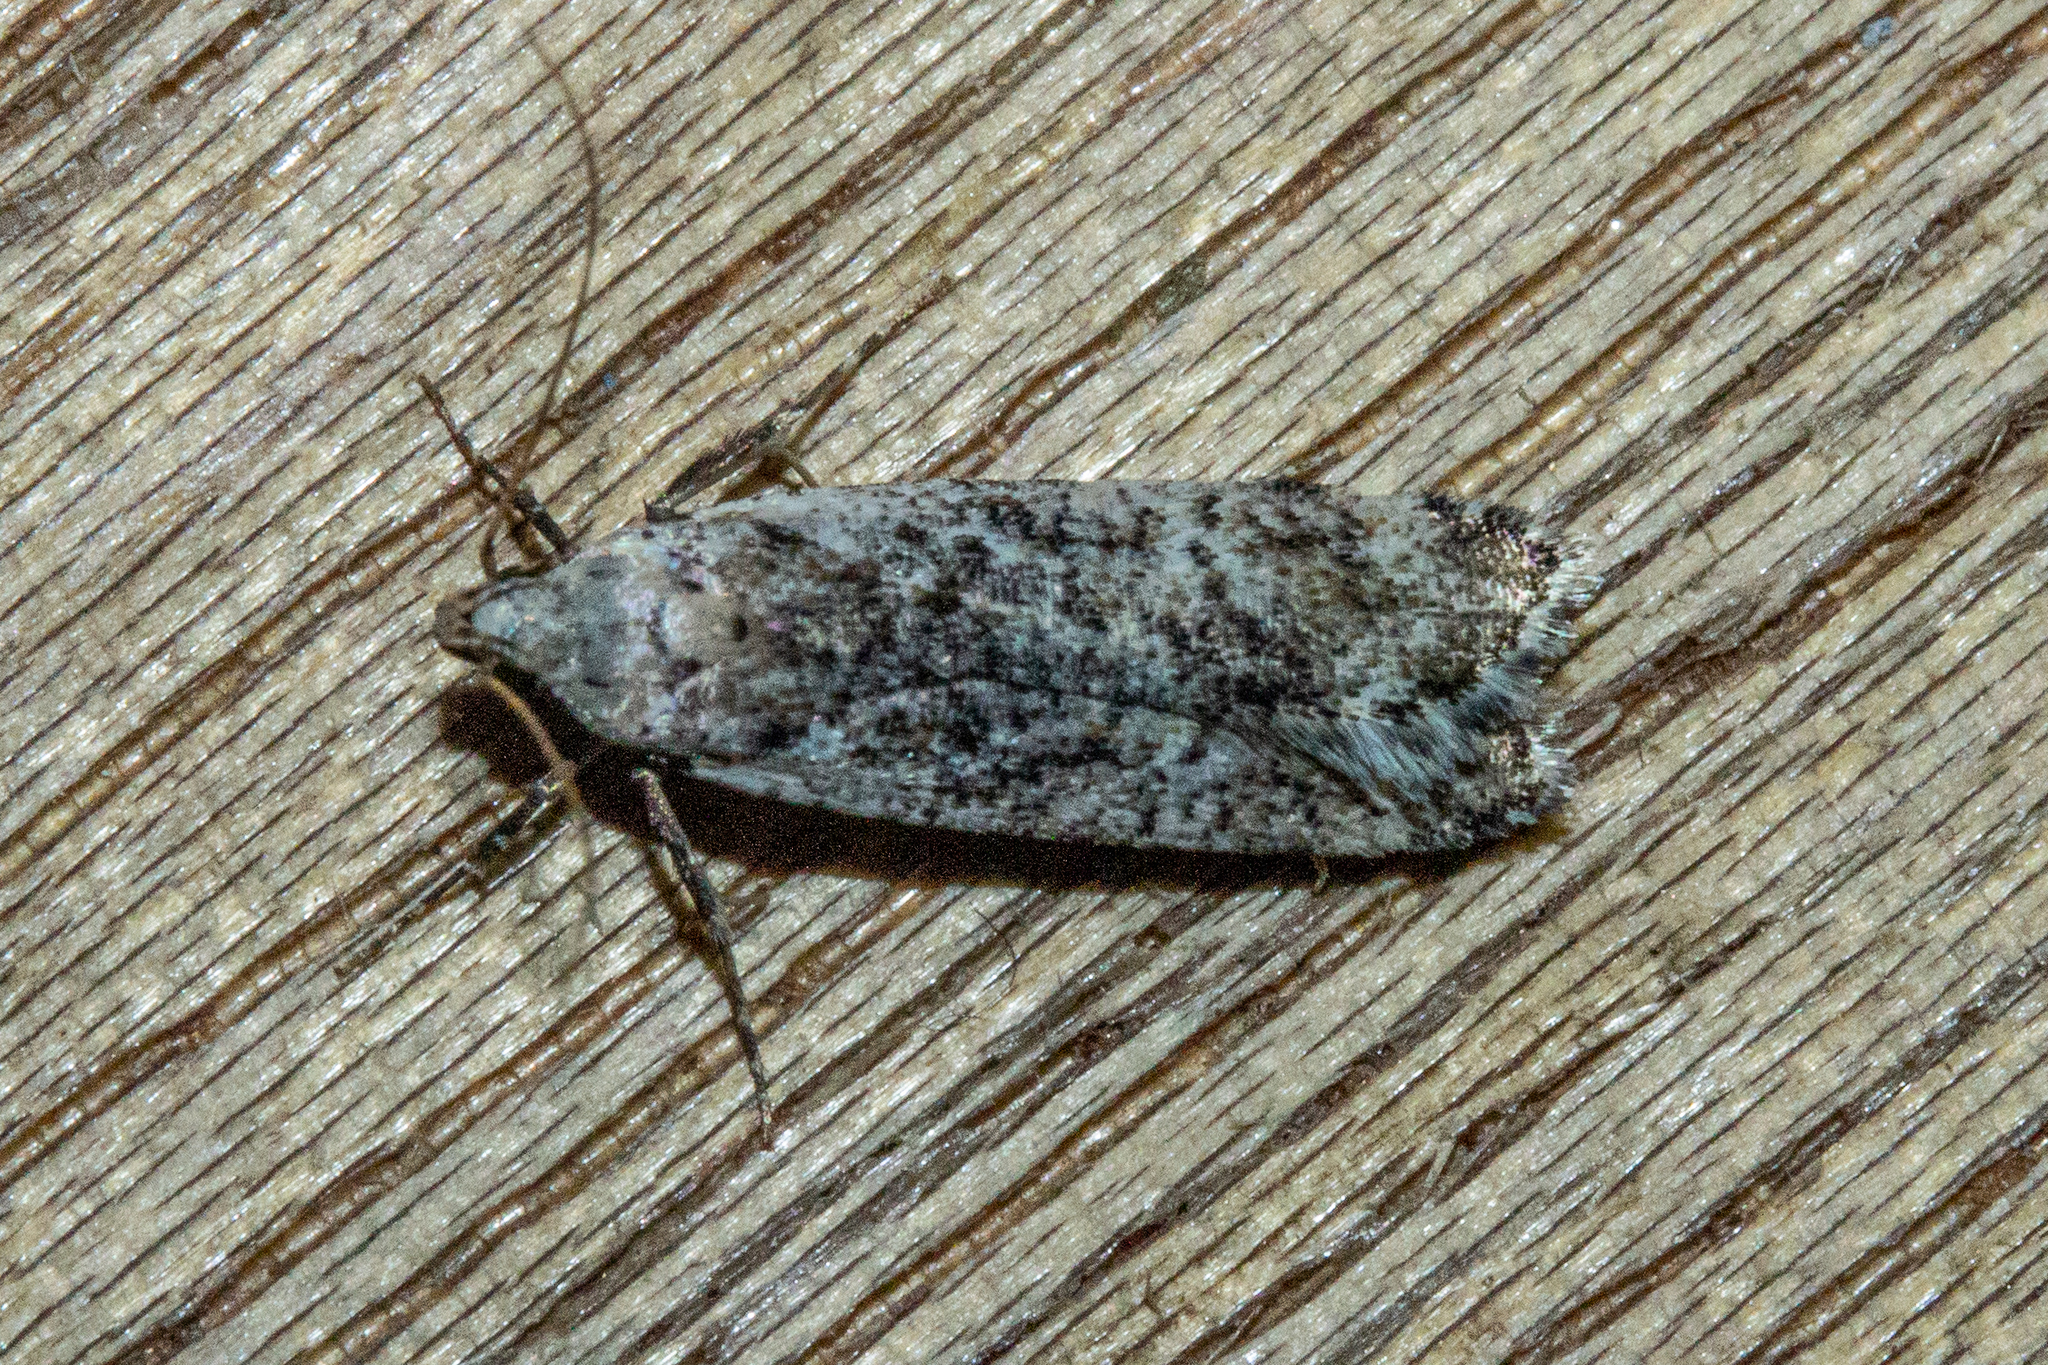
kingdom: Animalia
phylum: Arthropoda
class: Insecta
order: Lepidoptera
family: Gelechiidae
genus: Anisoplaca
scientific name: Anisoplaca achyrota
